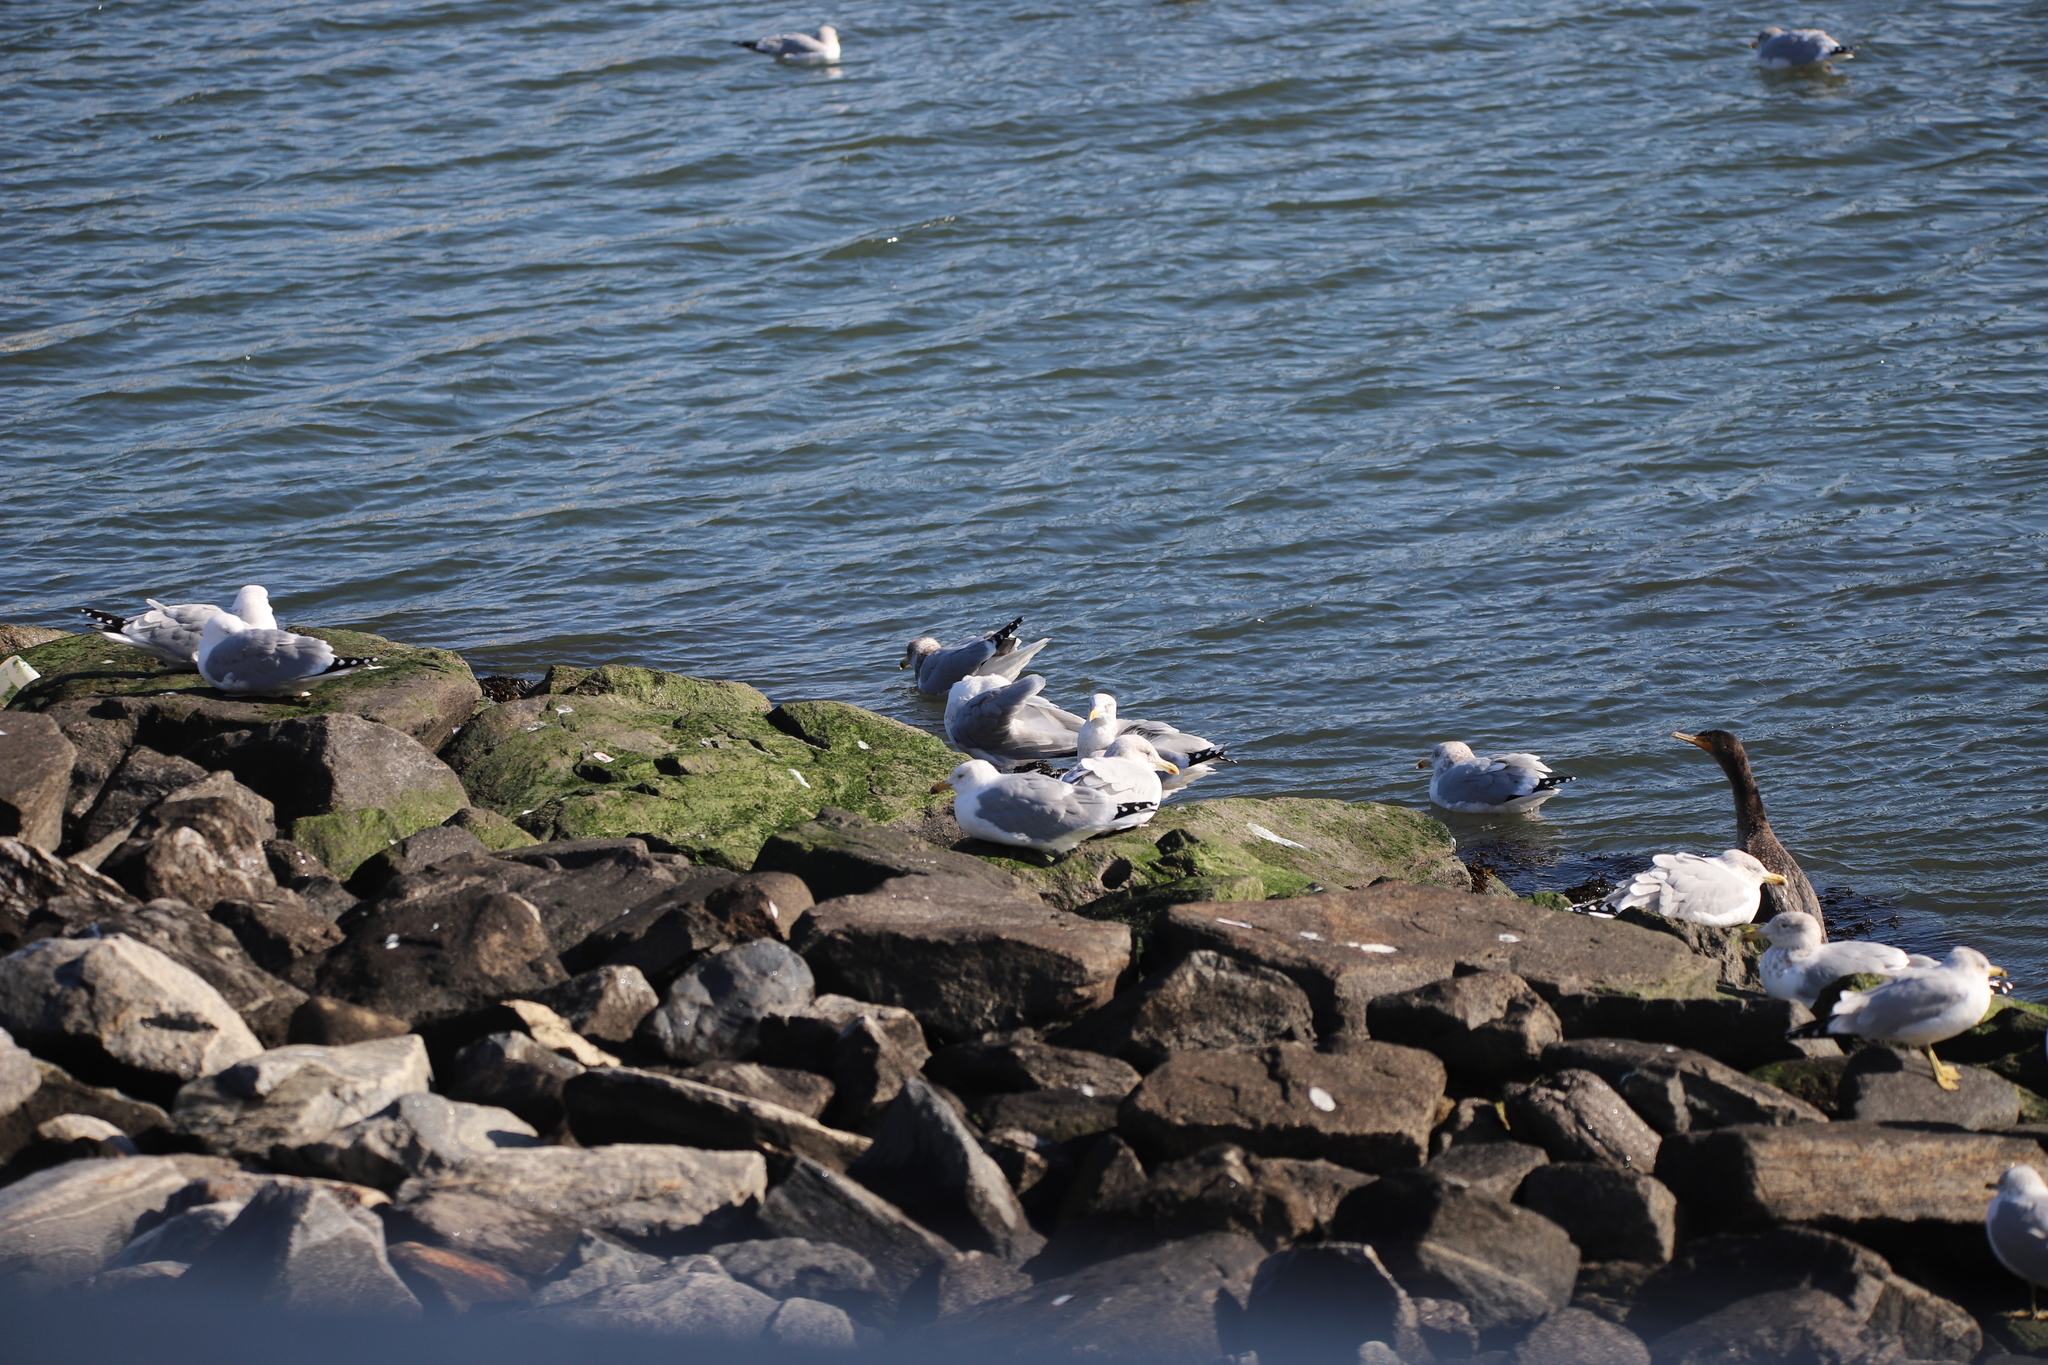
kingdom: Animalia
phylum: Chordata
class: Aves
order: Charadriiformes
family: Laridae
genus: Larus
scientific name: Larus argentatus
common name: Herring gull
